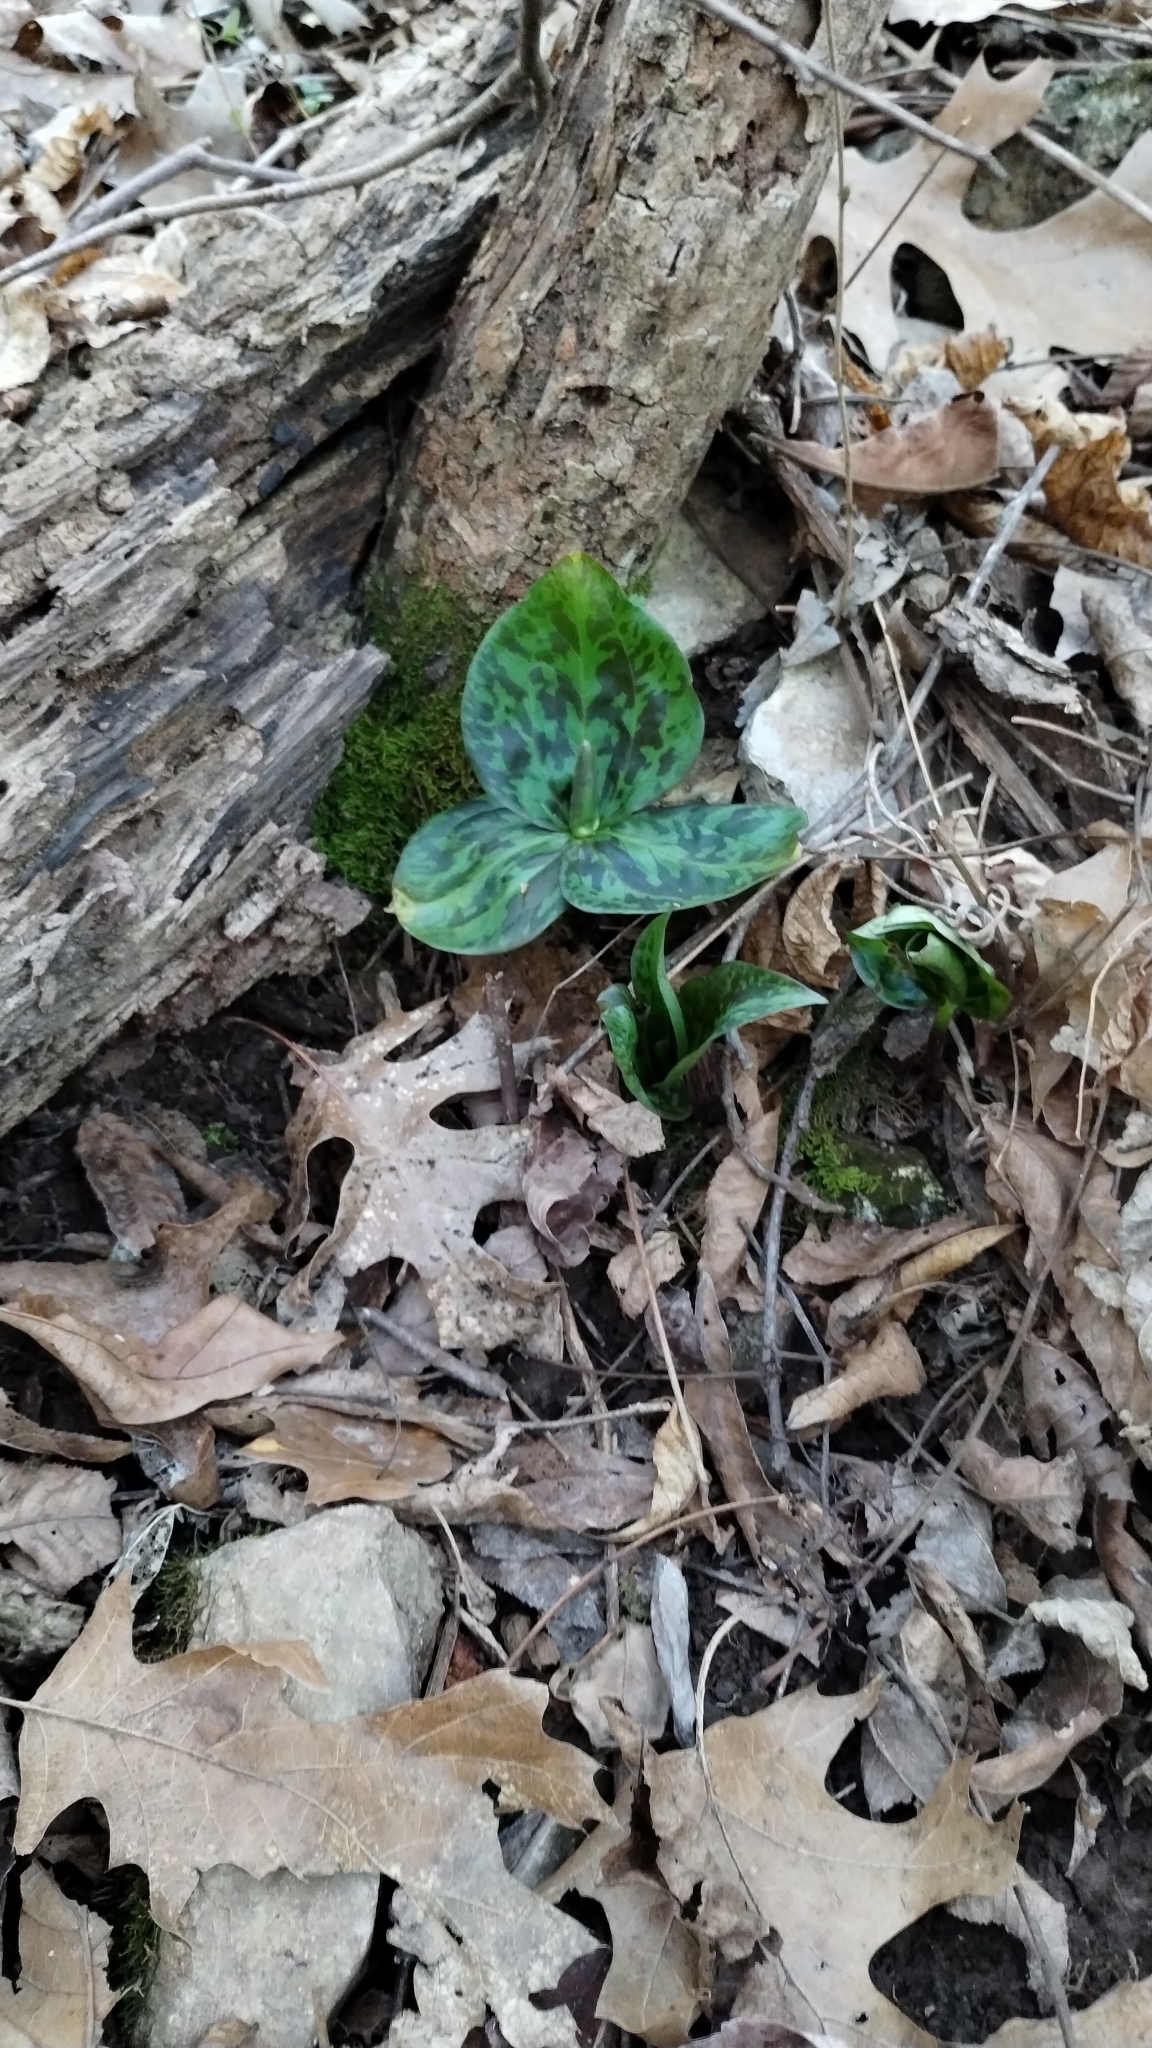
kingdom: Plantae
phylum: Tracheophyta
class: Liliopsida
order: Liliales
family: Melanthiaceae
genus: Trillium
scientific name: Trillium viridescens
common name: Ozark green trillium
